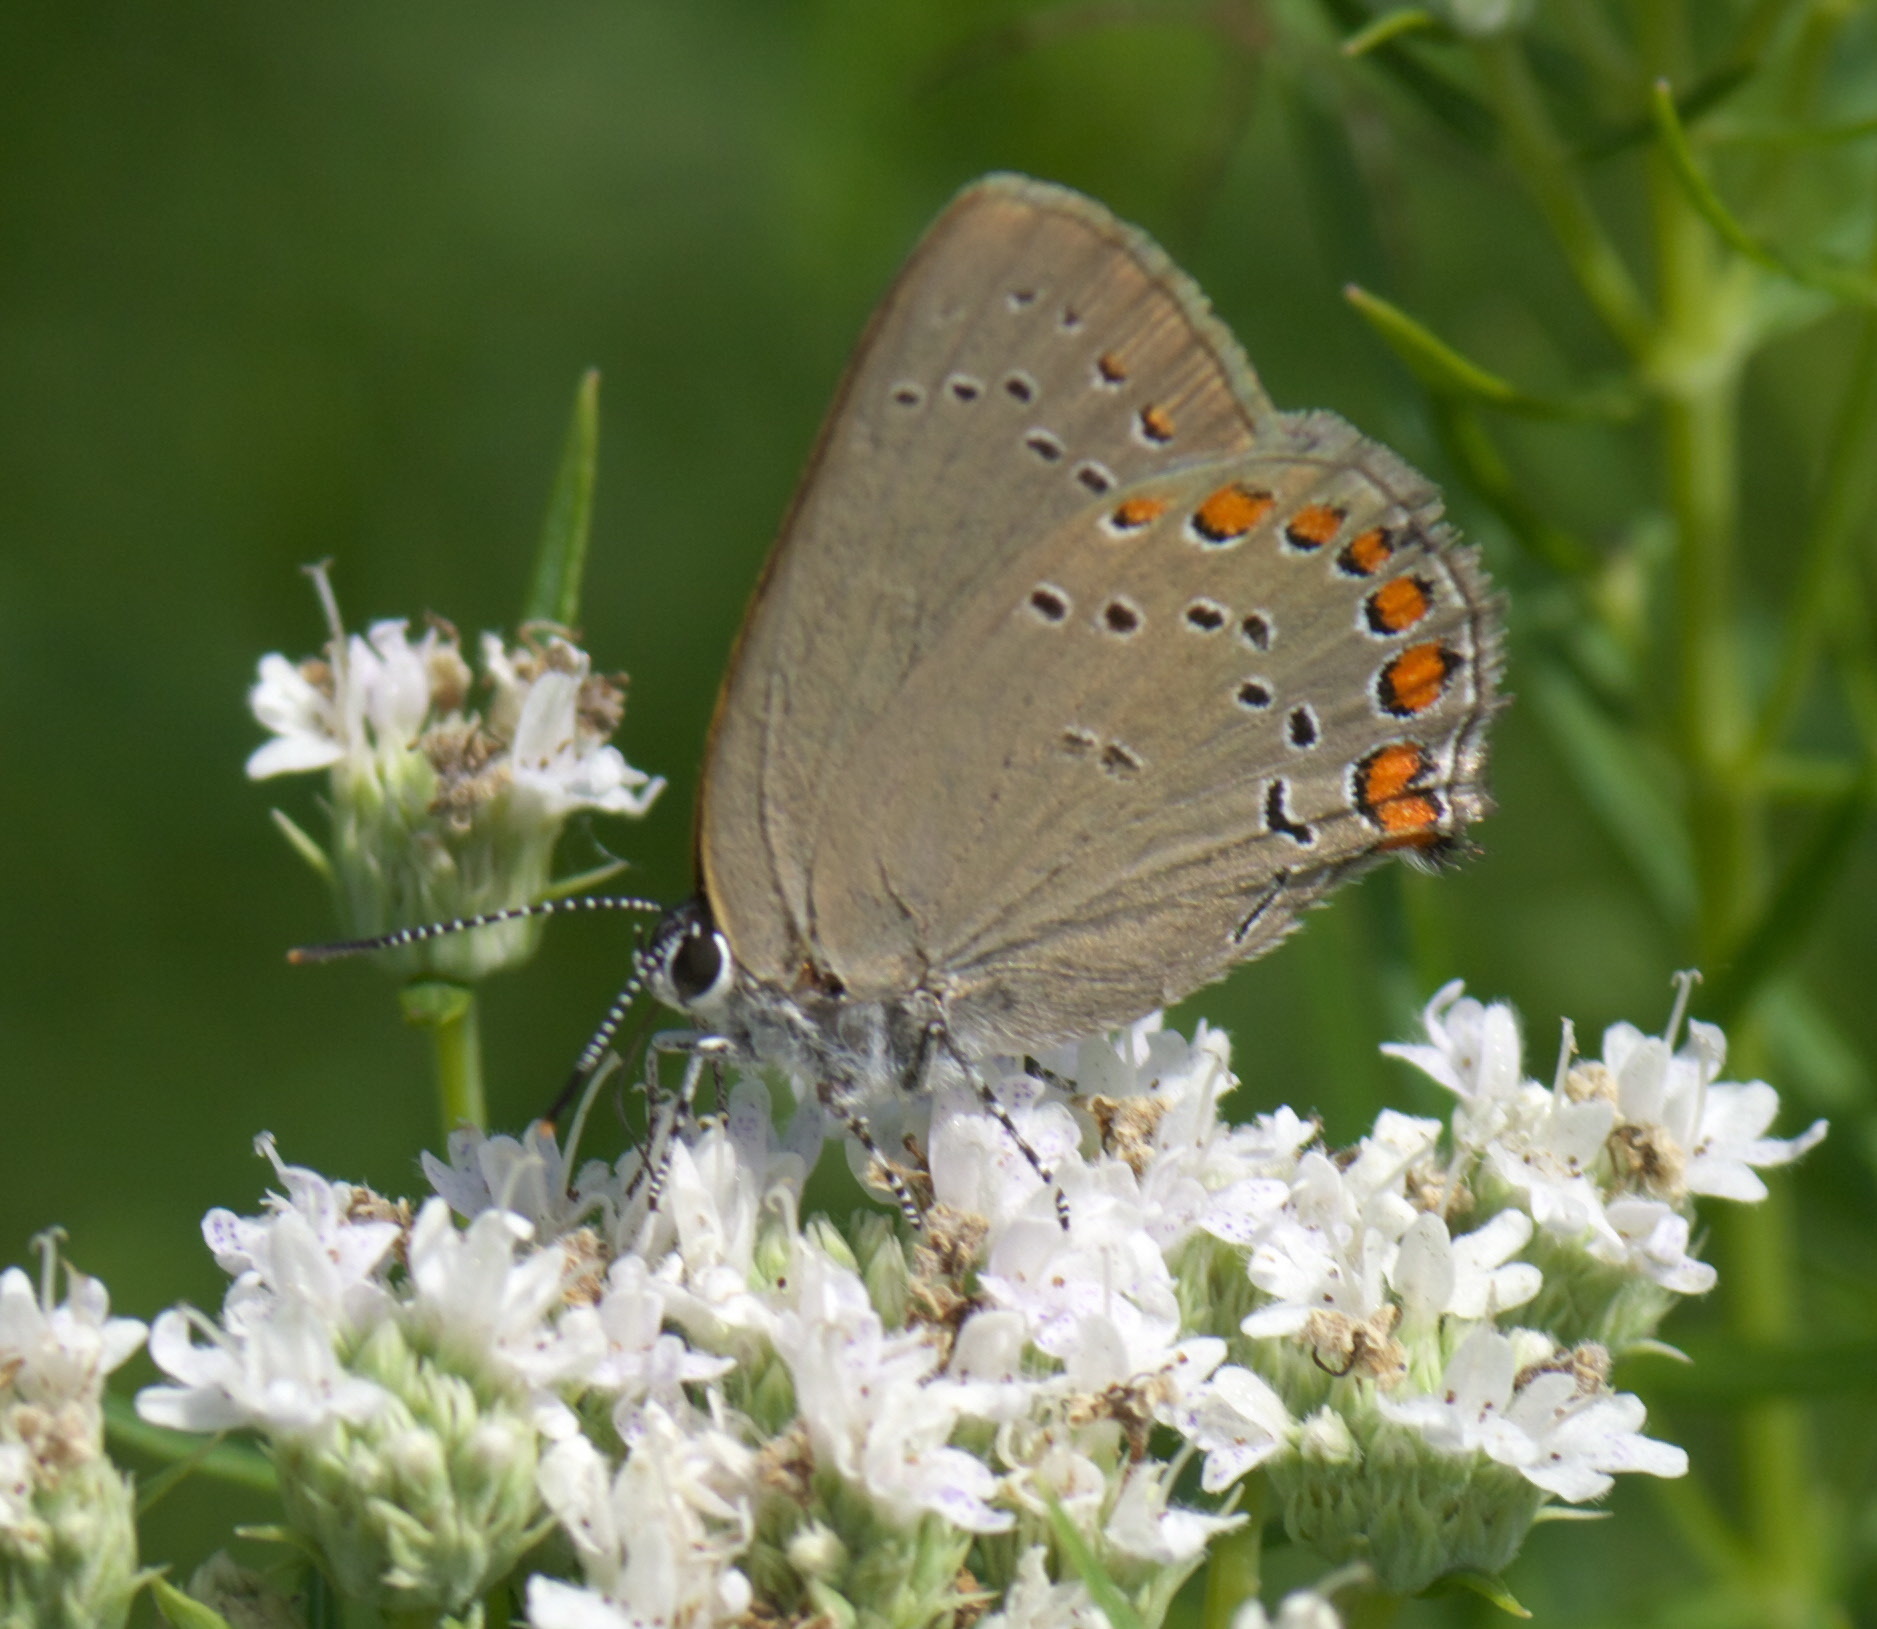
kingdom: Animalia
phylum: Arthropoda
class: Insecta
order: Lepidoptera
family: Lycaenidae
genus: Harkenclenus
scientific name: Harkenclenus titus
